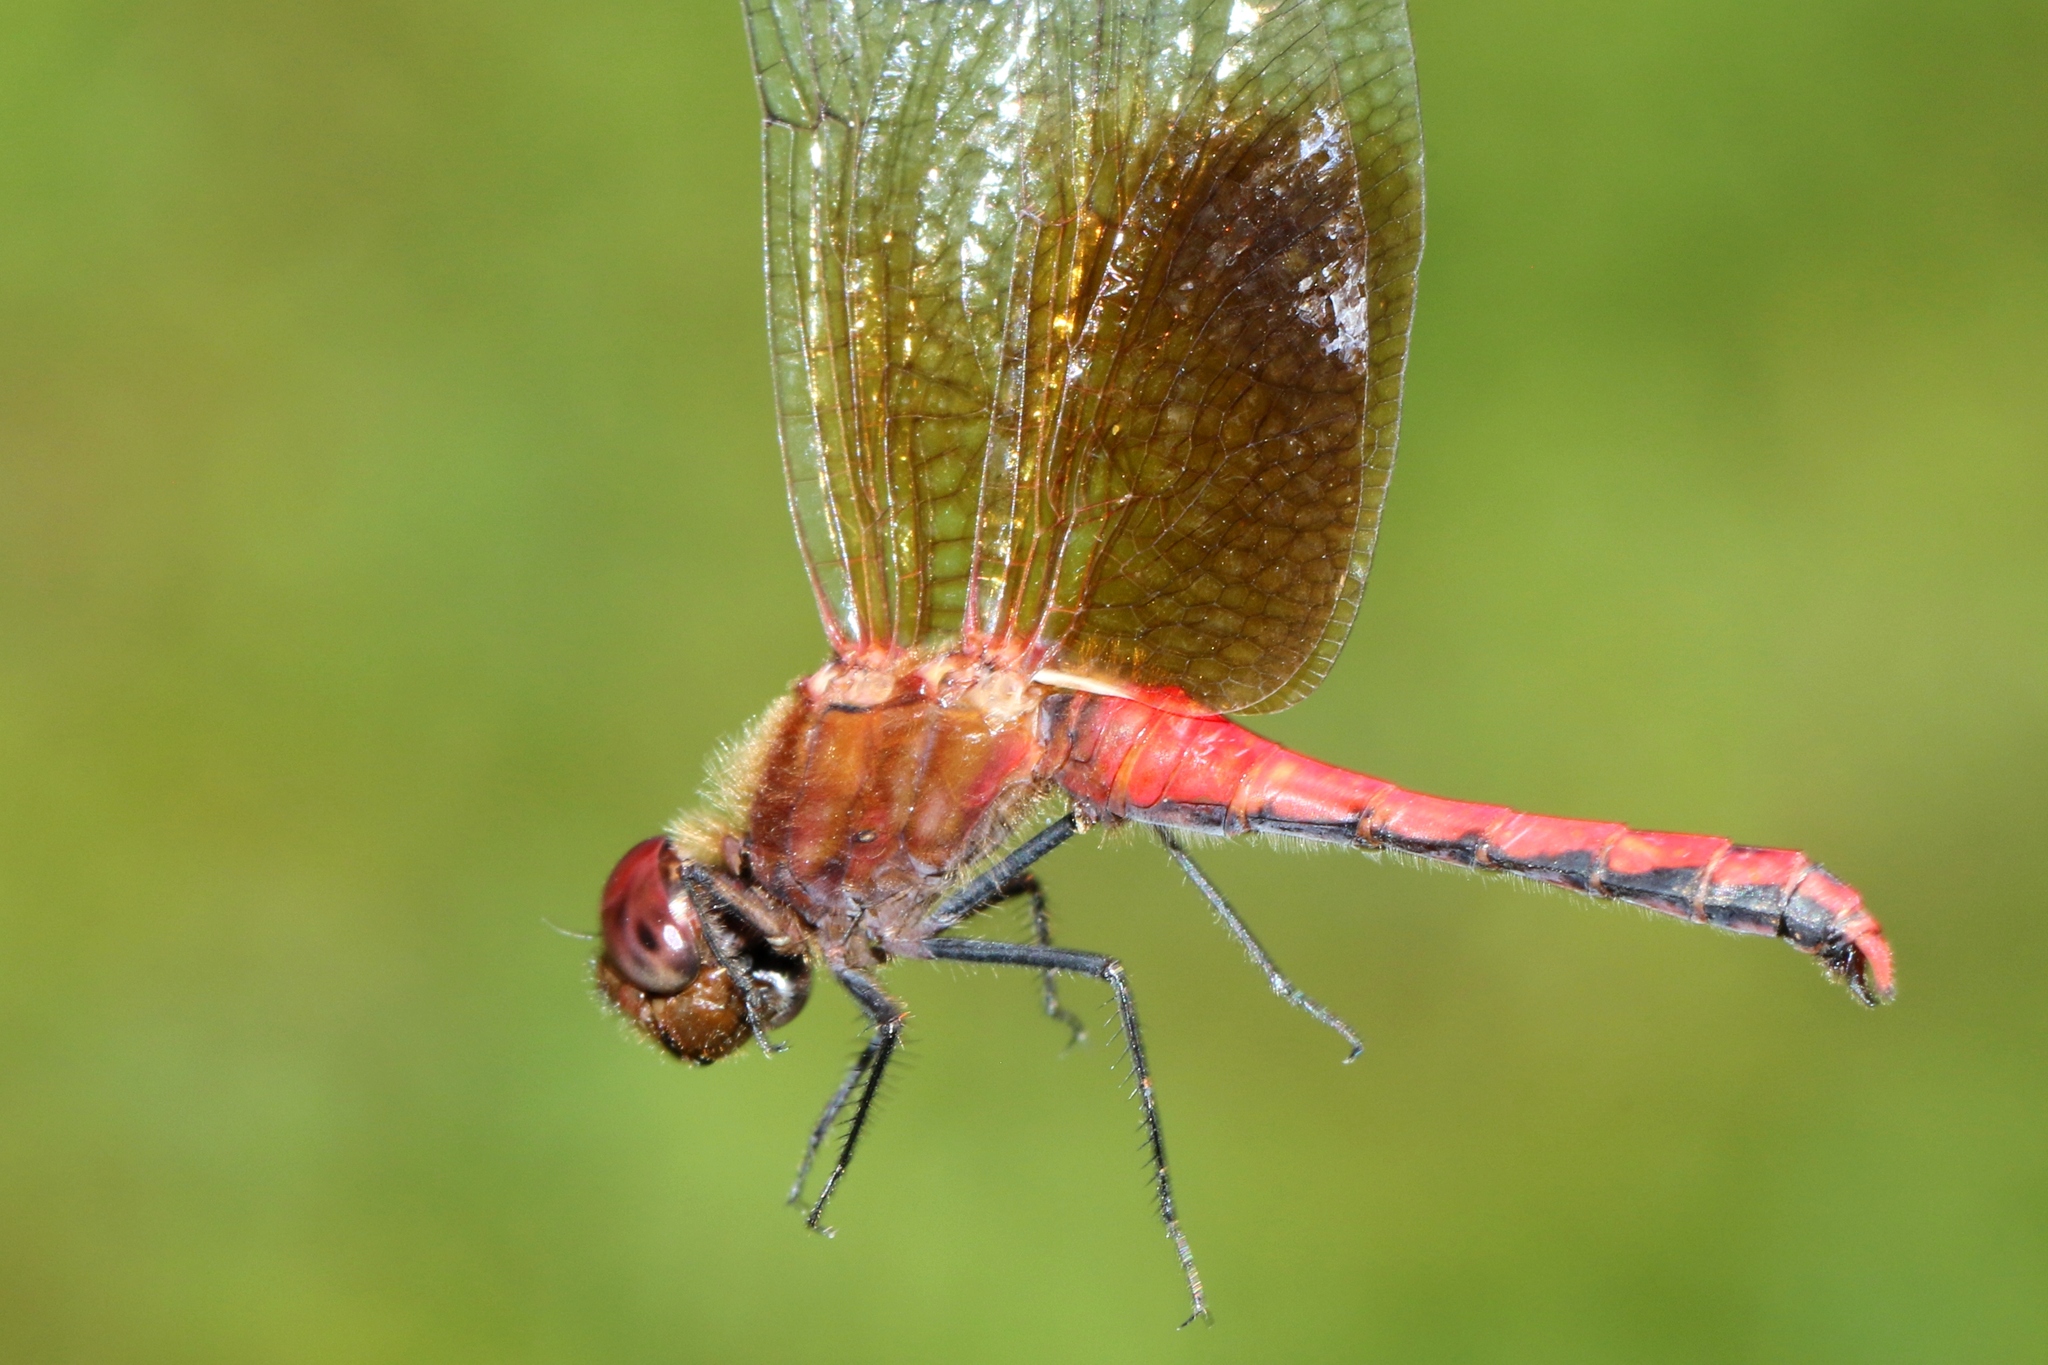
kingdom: Animalia
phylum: Arthropoda
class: Insecta
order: Odonata
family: Libellulidae
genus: Sympetrum
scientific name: Sympetrum semicinctum
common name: Band-winged meadowhawk
